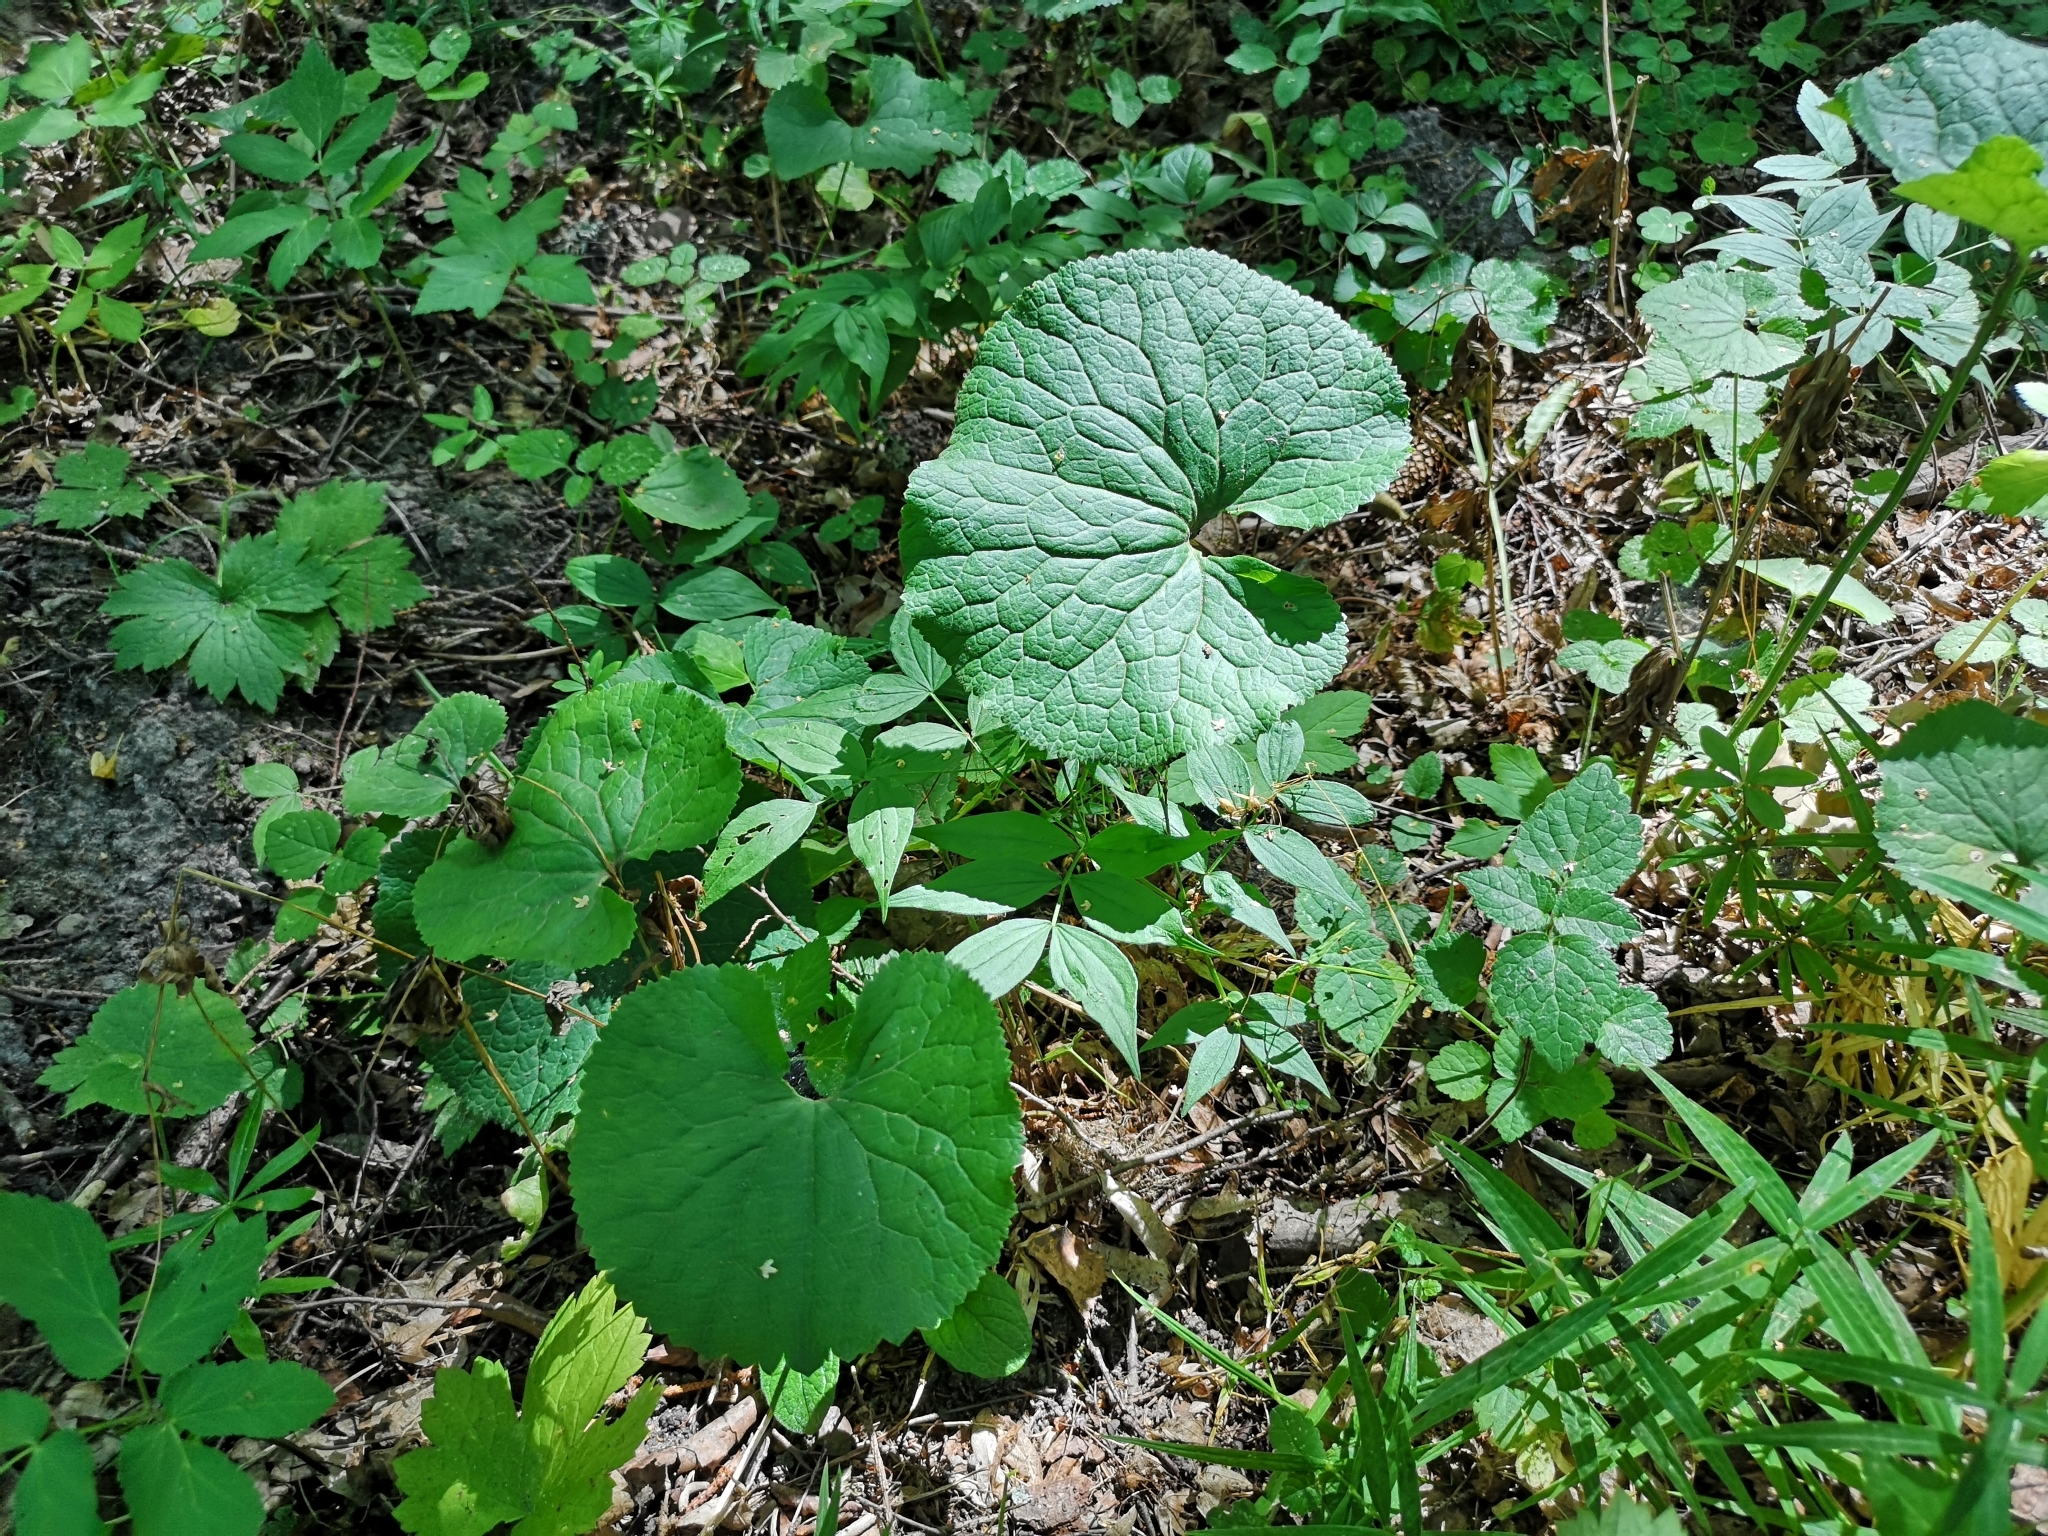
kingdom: Plantae
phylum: Tracheophyta
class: Magnoliopsida
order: Ranunculales
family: Ranunculaceae
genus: Ranunculus
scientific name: Ranunculus cassubicus
